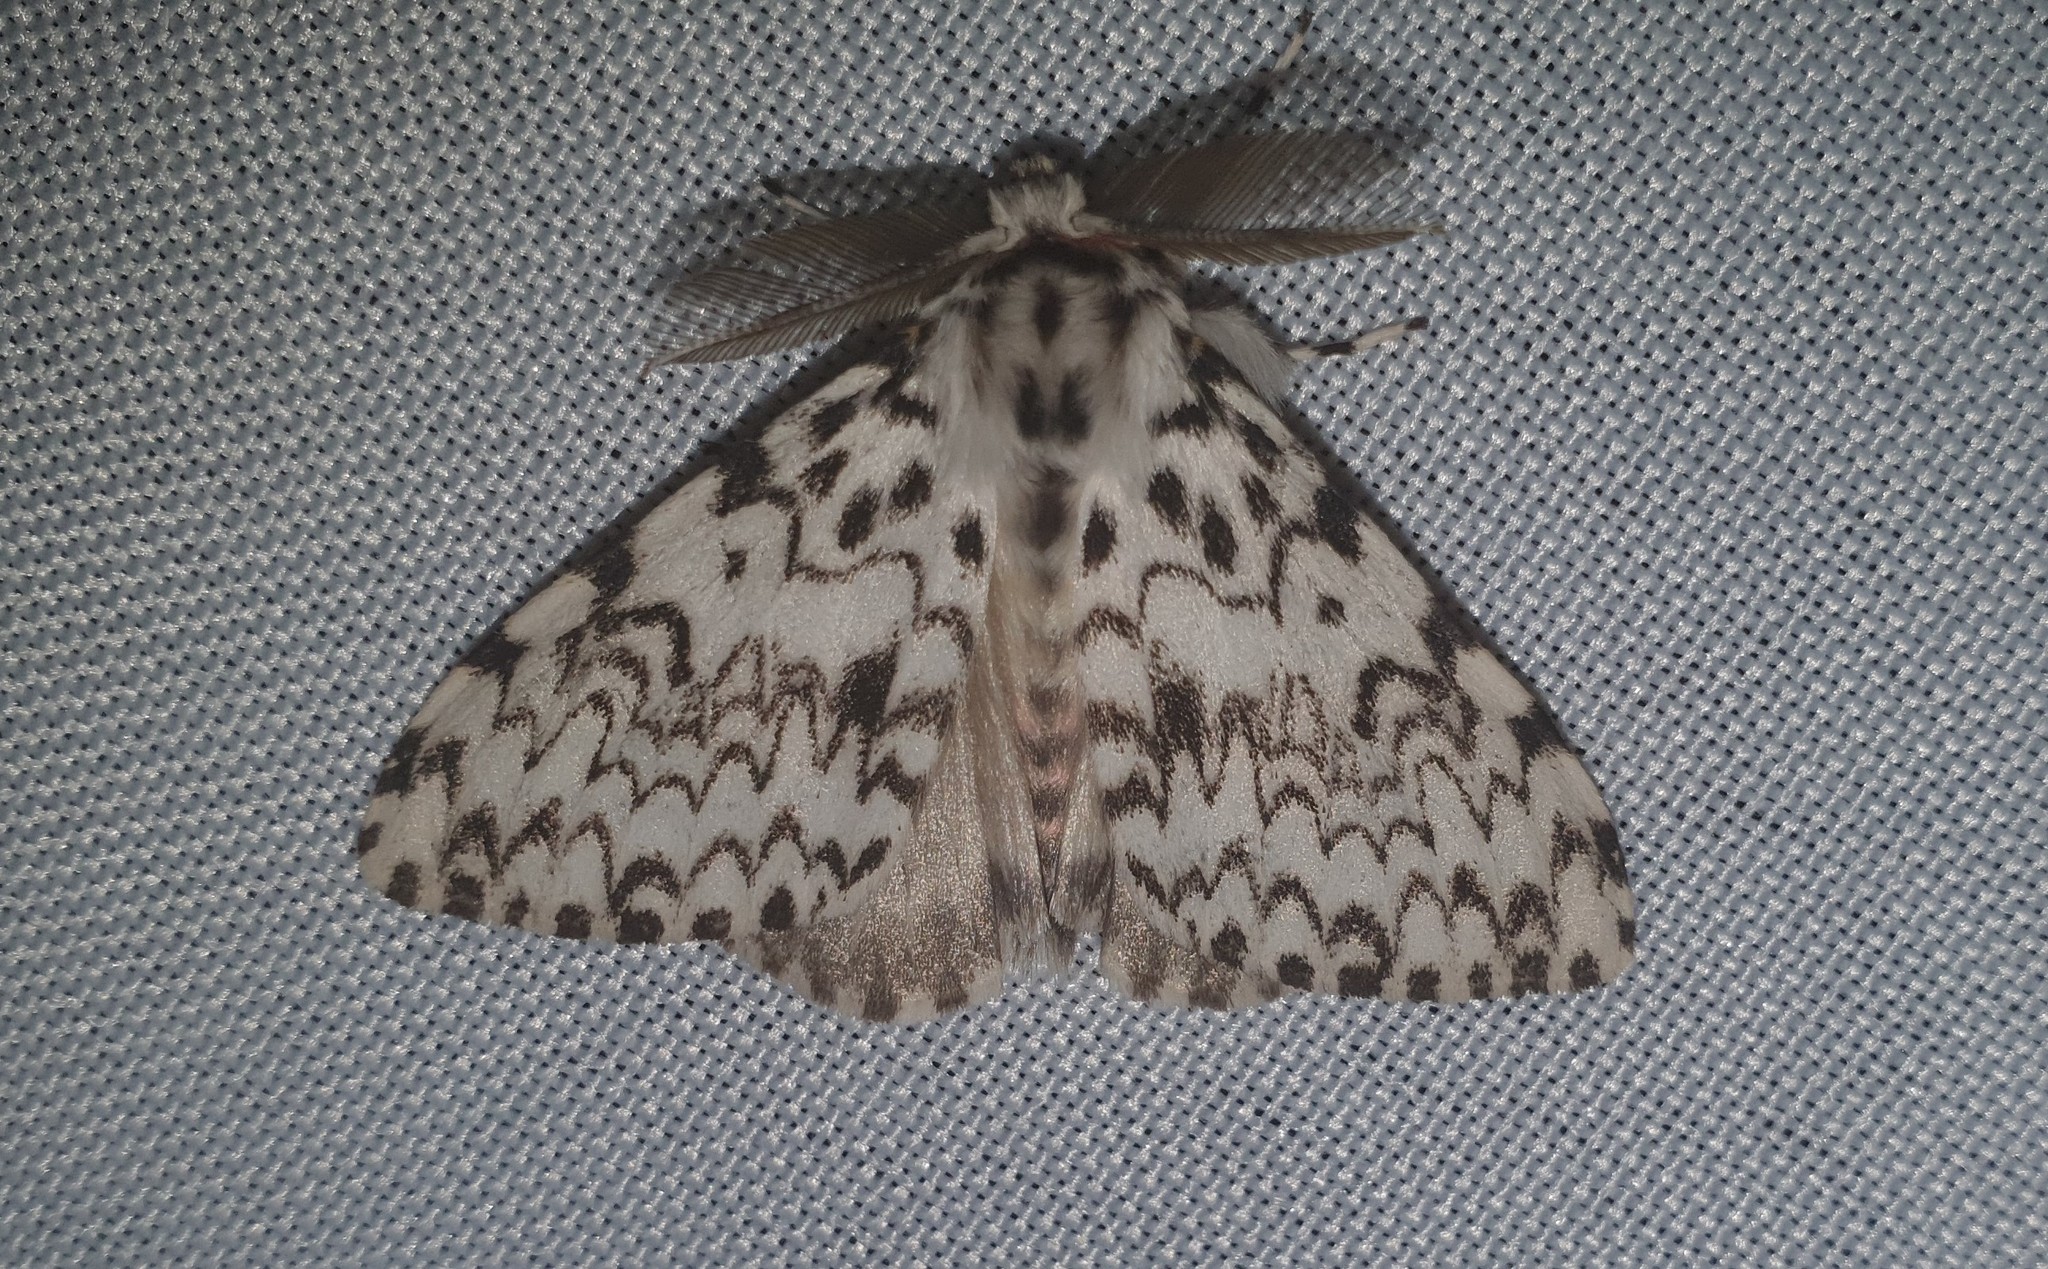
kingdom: Animalia
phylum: Arthropoda
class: Insecta
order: Lepidoptera
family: Erebidae
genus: Lymantria
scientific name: Lymantria monacha
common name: Black arches
